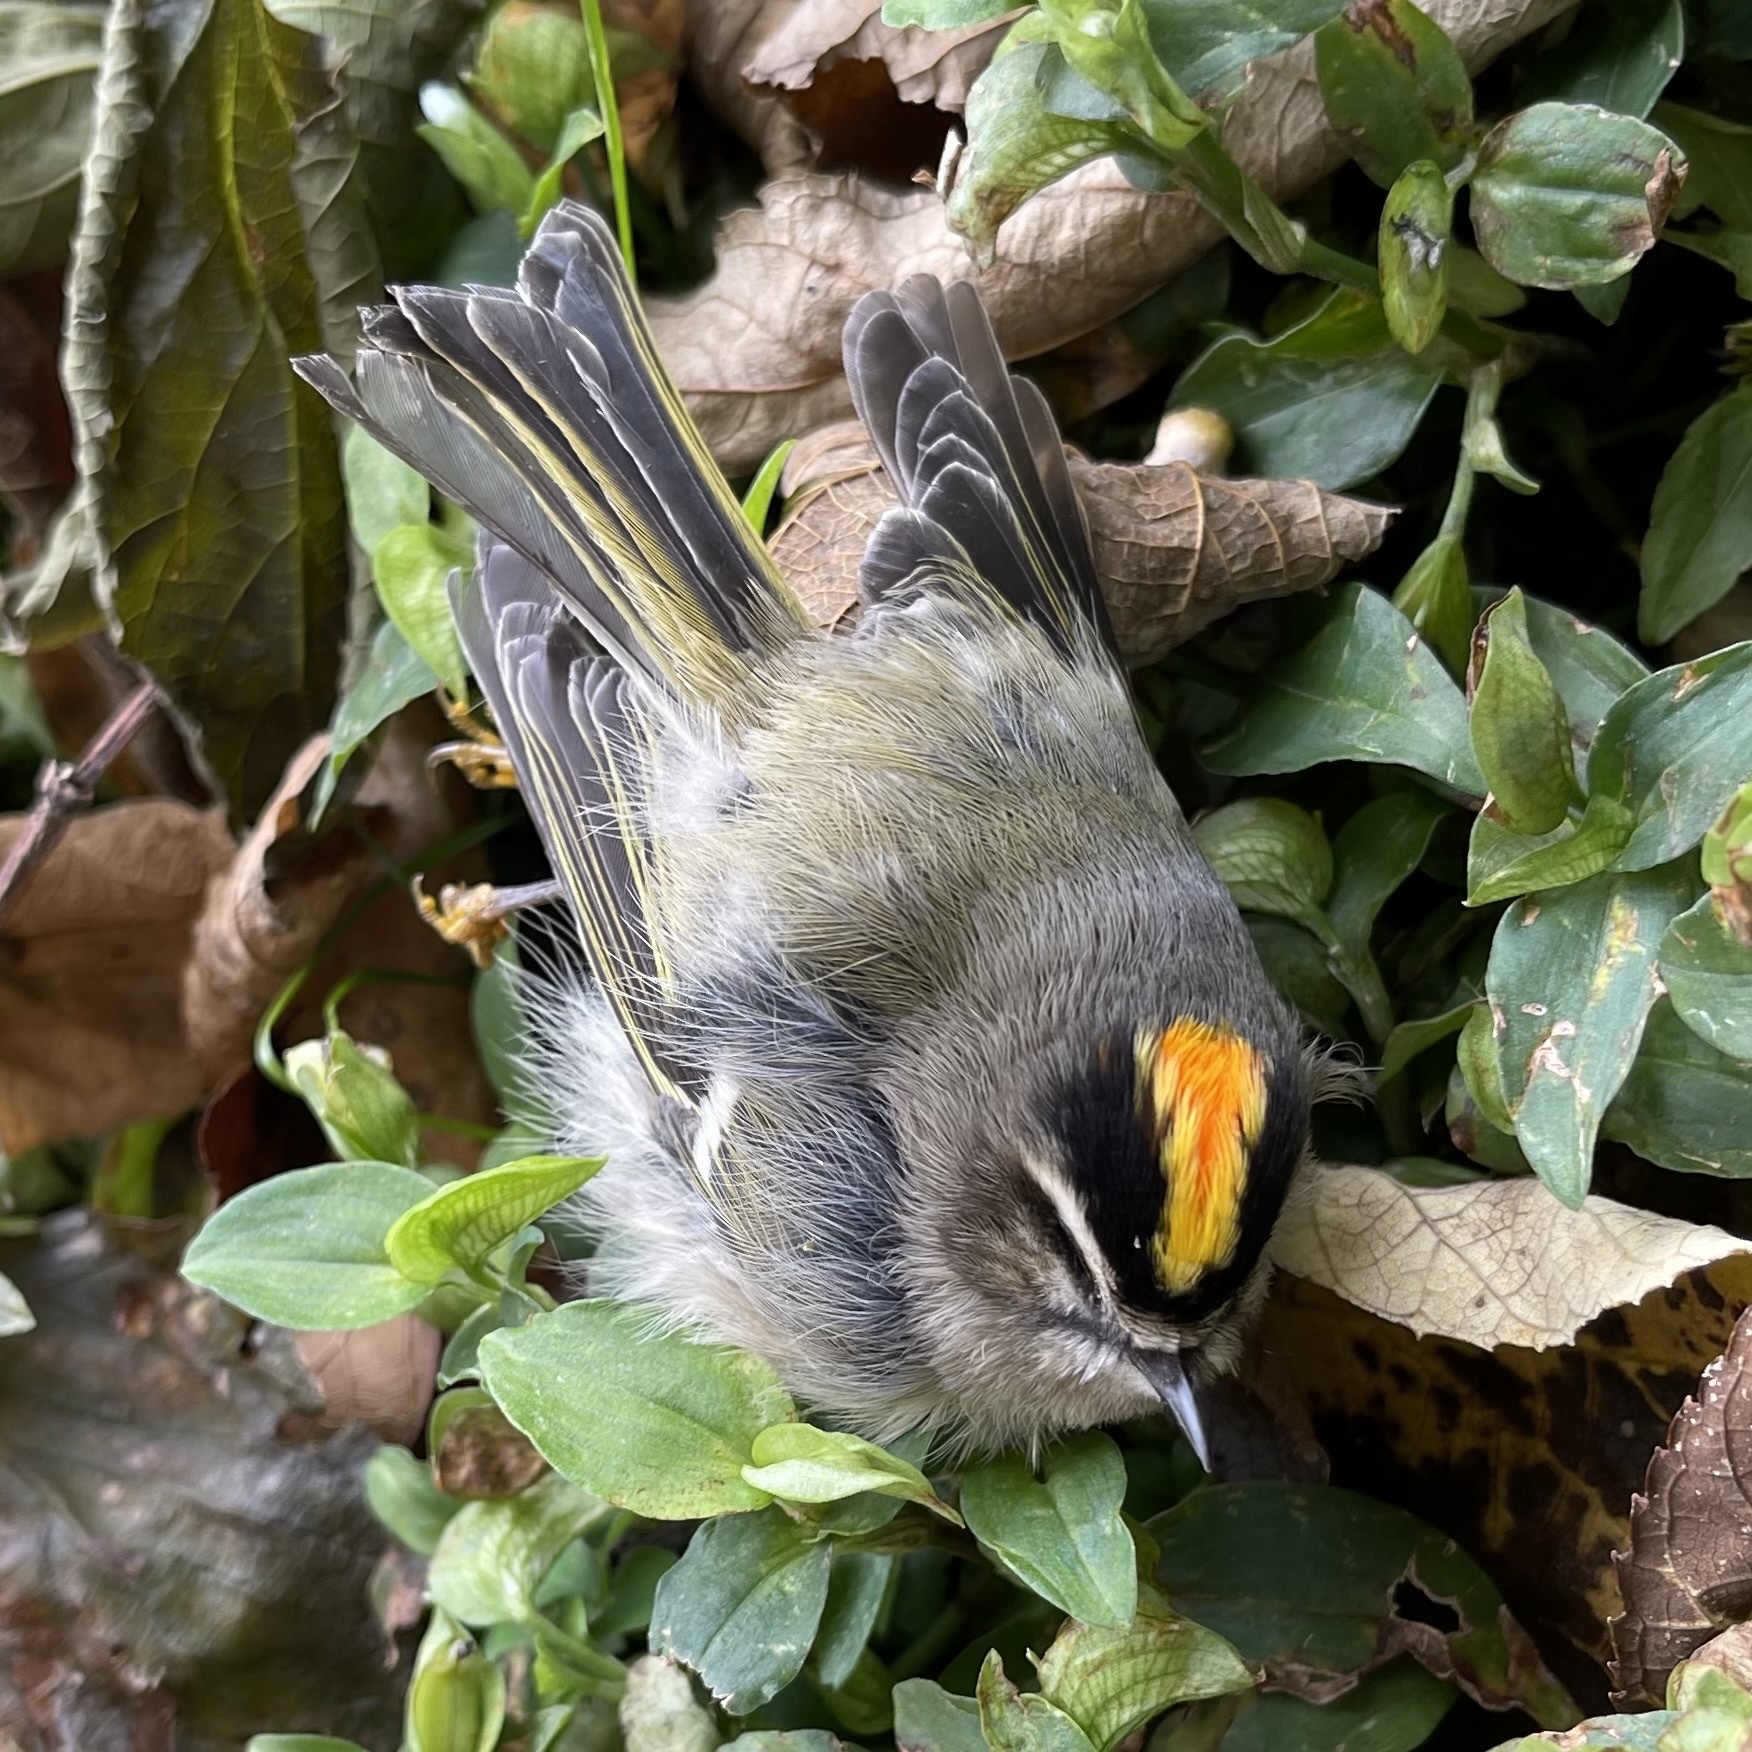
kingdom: Animalia
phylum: Chordata
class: Aves
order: Passeriformes
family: Regulidae
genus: Regulus
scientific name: Regulus satrapa
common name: Golden-crowned kinglet
